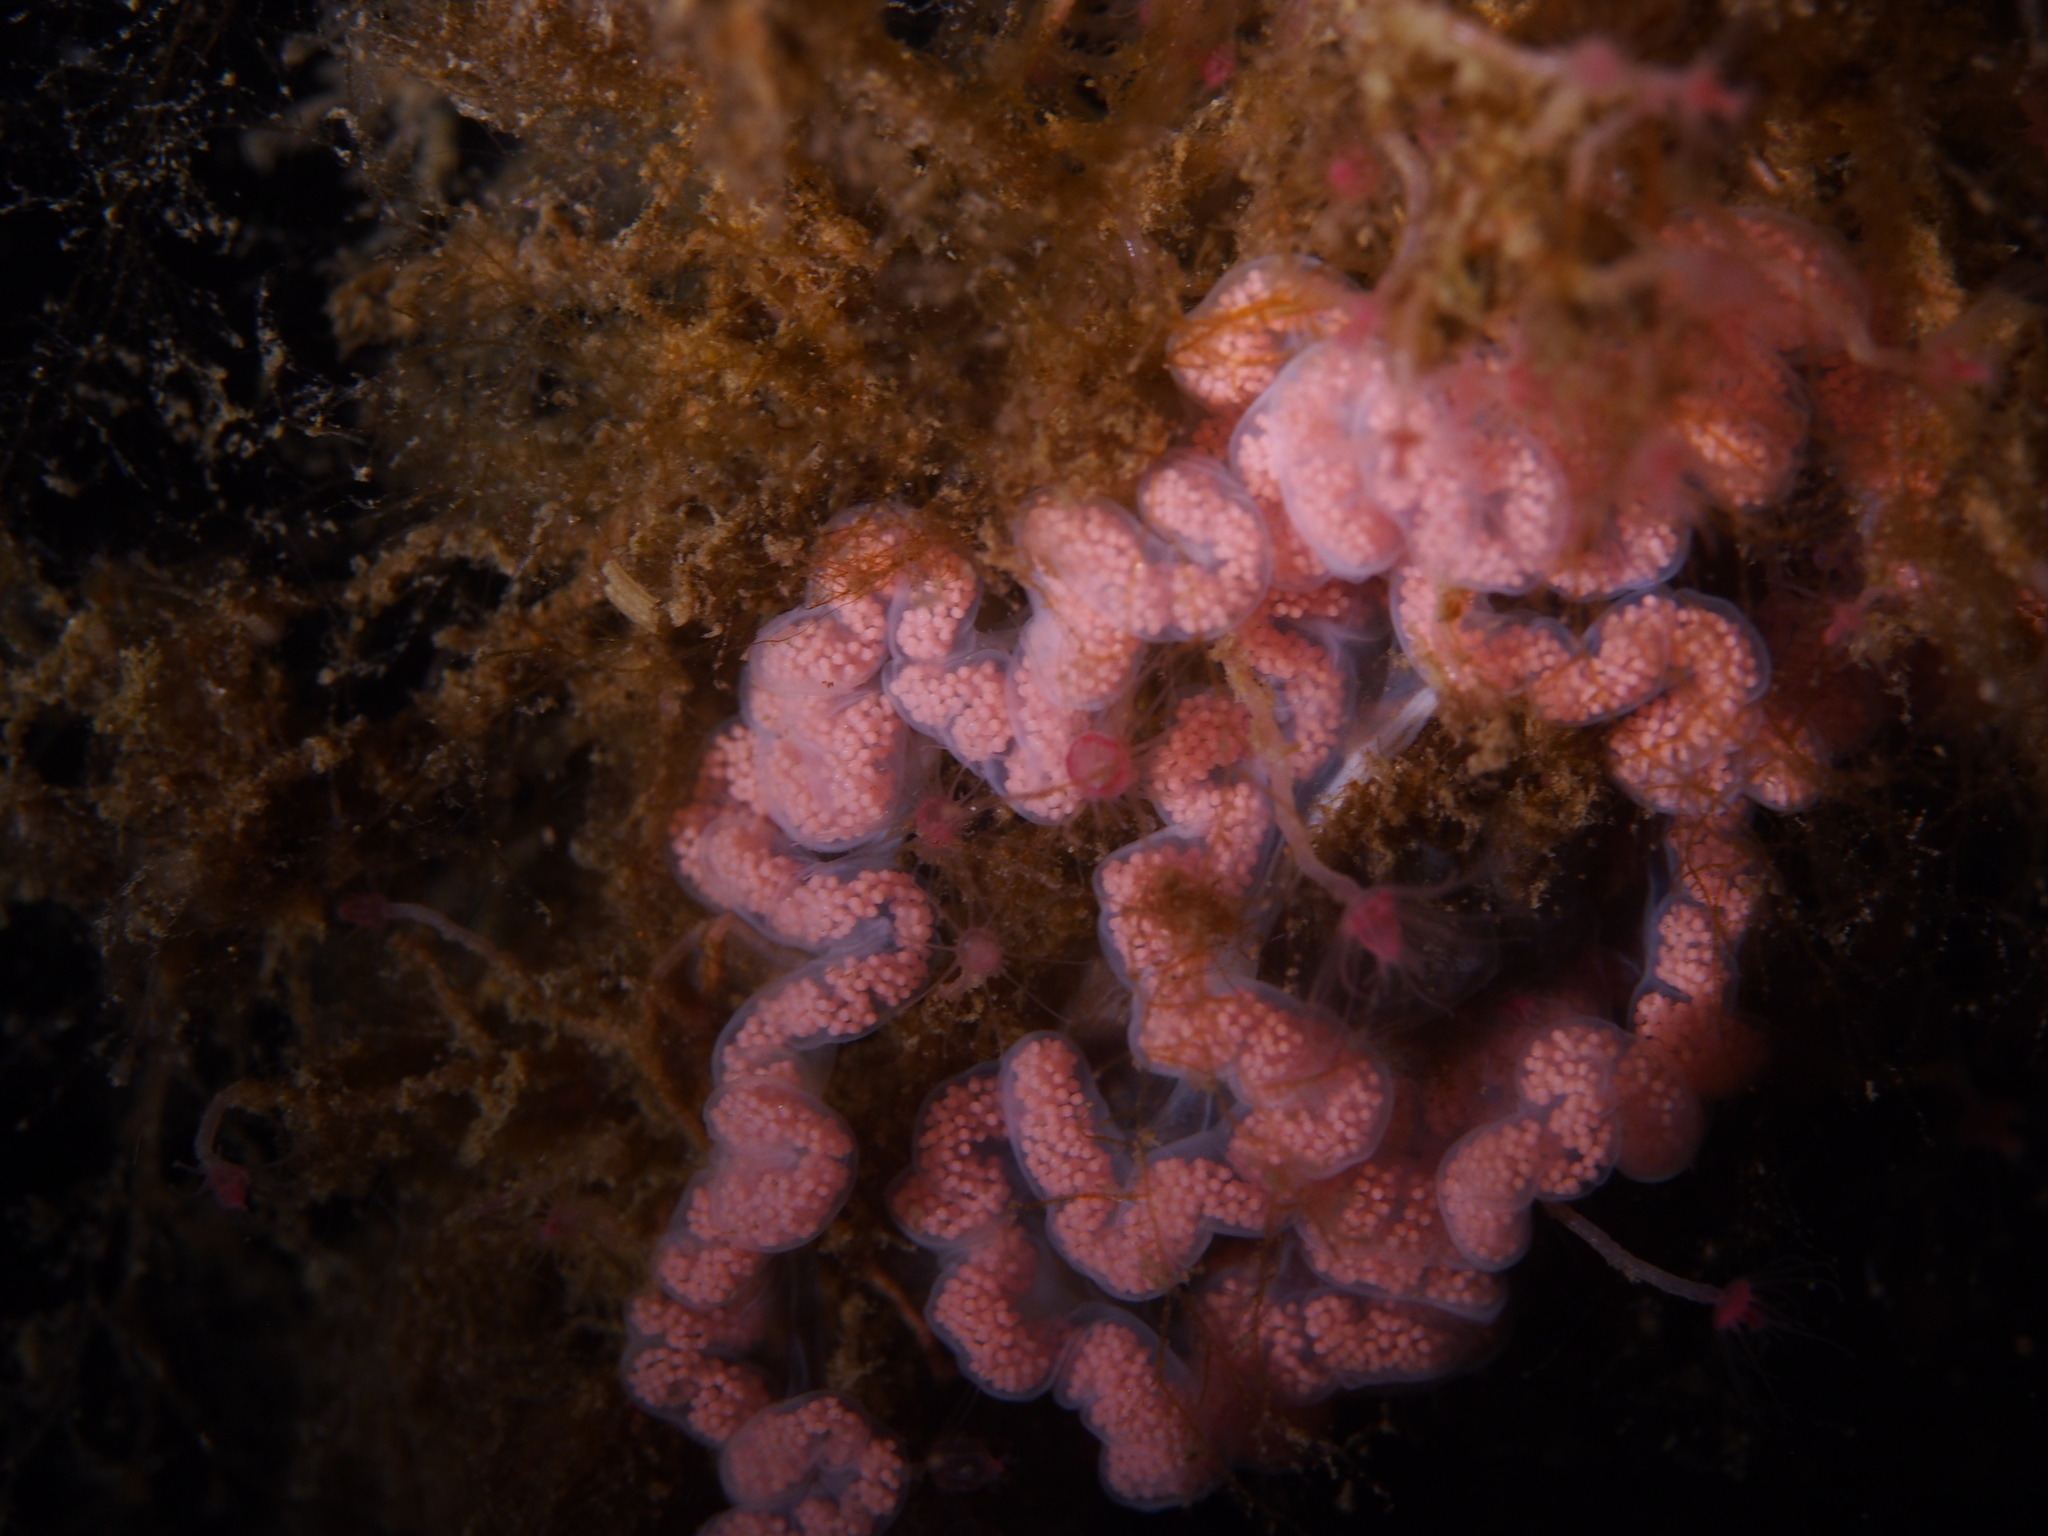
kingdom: Animalia
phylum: Mollusca
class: Gastropoda
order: Nudibranchia
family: Dendronotidae
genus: Dendronotus
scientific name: Dendronotus europaeus
